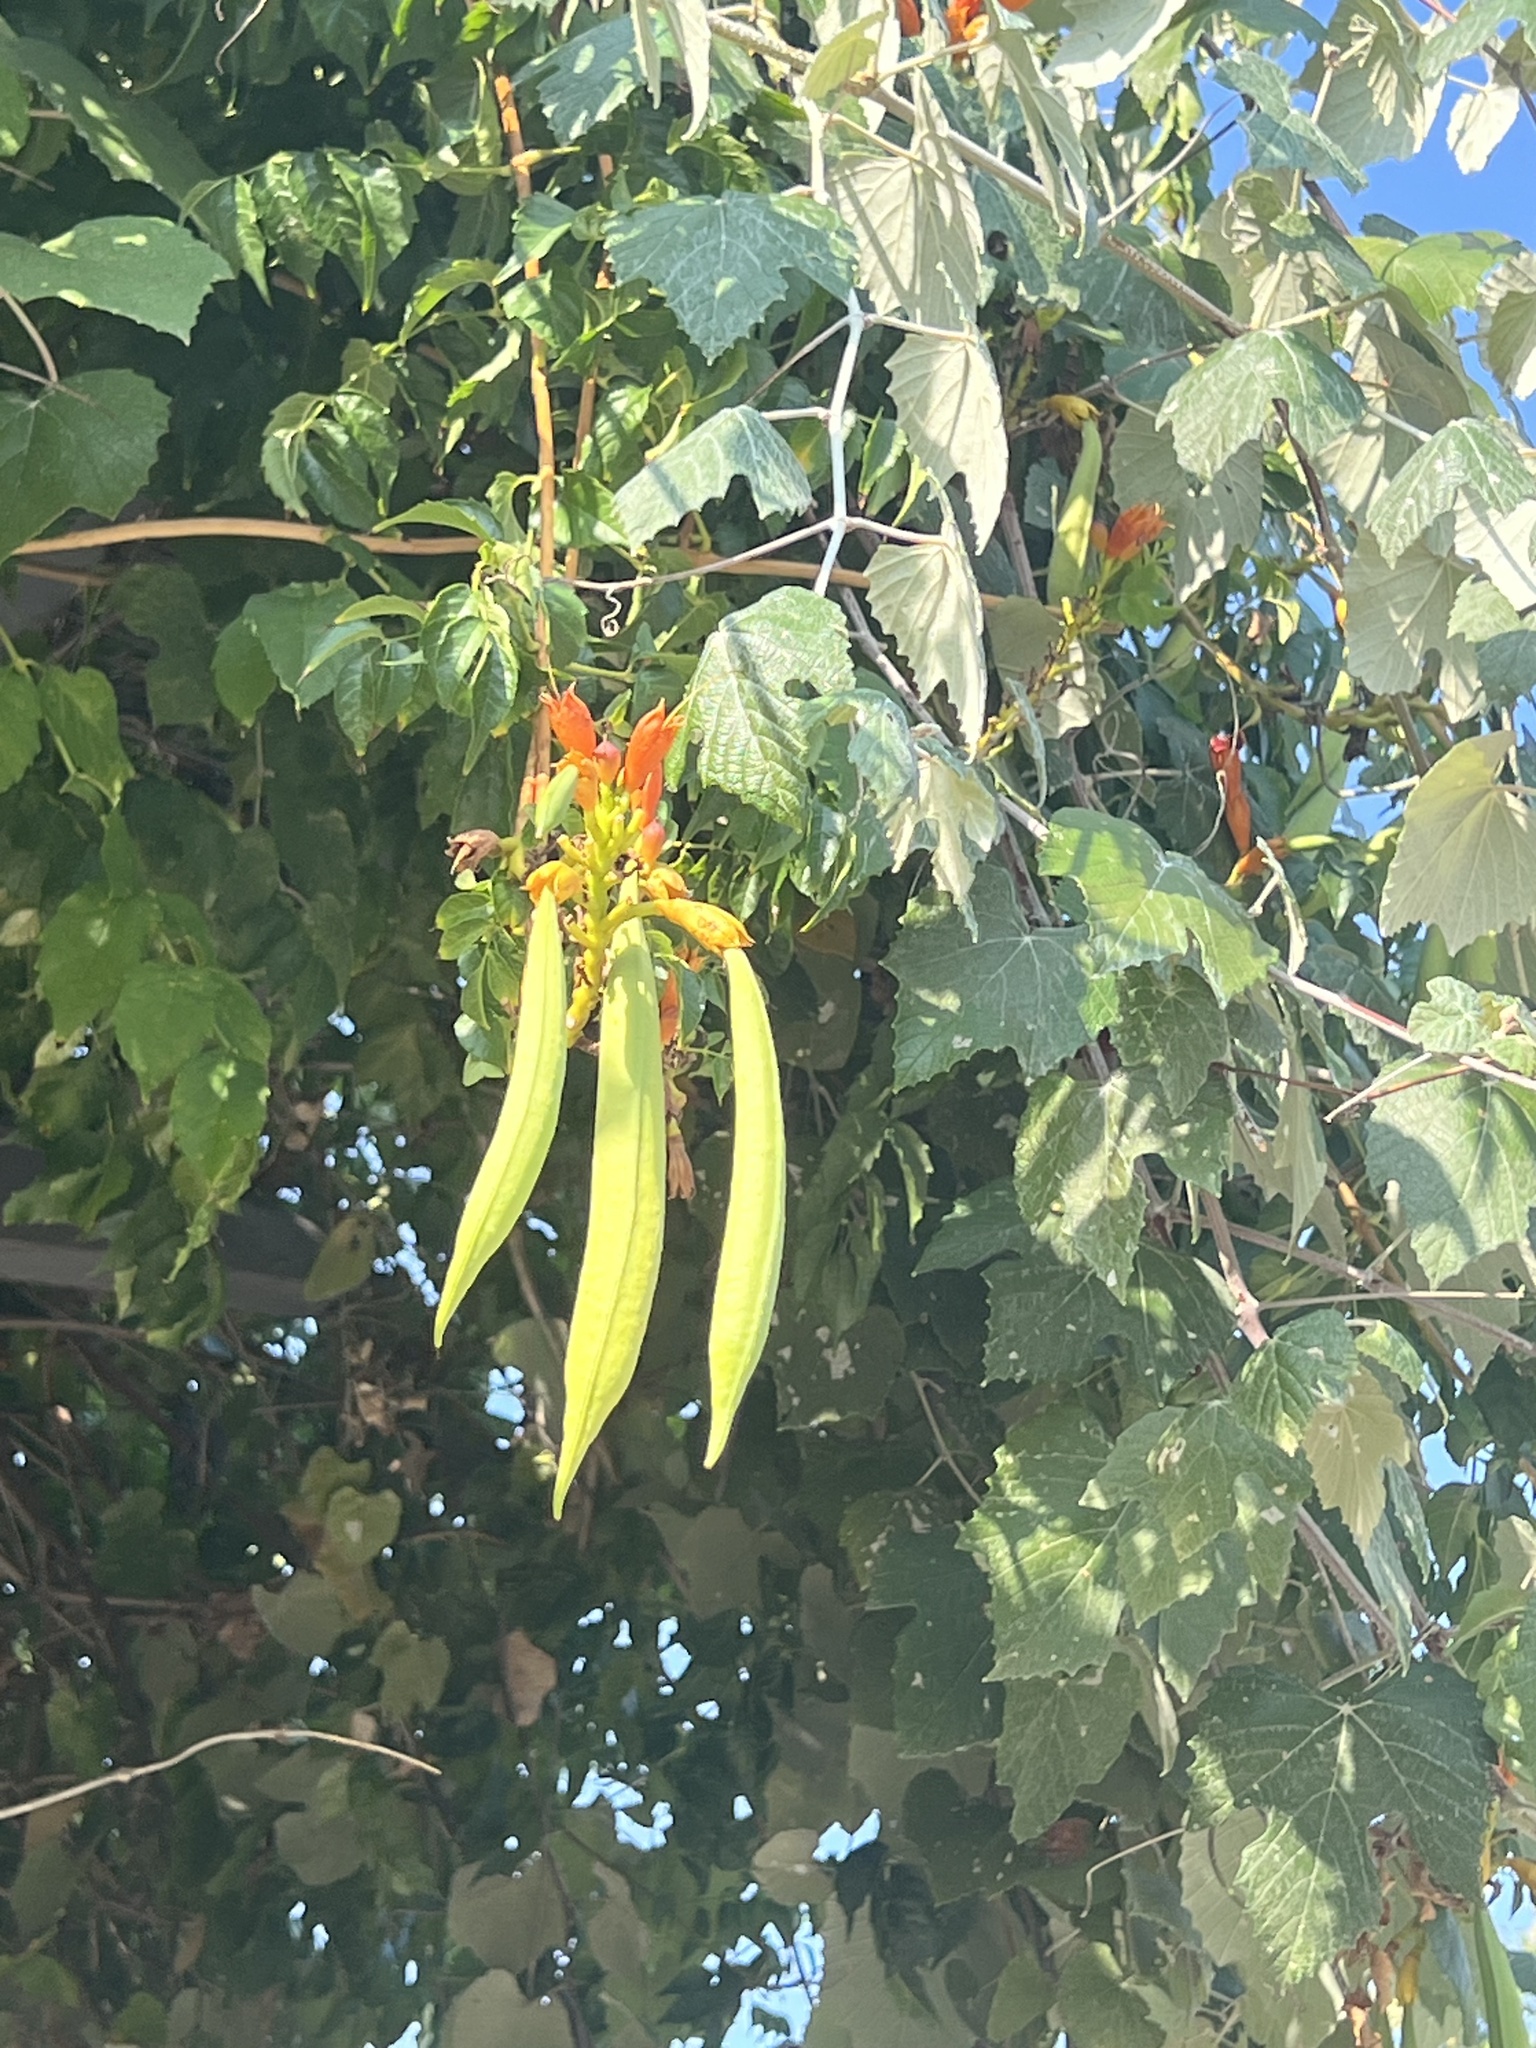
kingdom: Plantae
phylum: Tracheophyta
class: Magnoliopsida
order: Lamiales
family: Bignoniaceae
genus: Campsis
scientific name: Campsis radicans
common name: Trumpet-creeper
